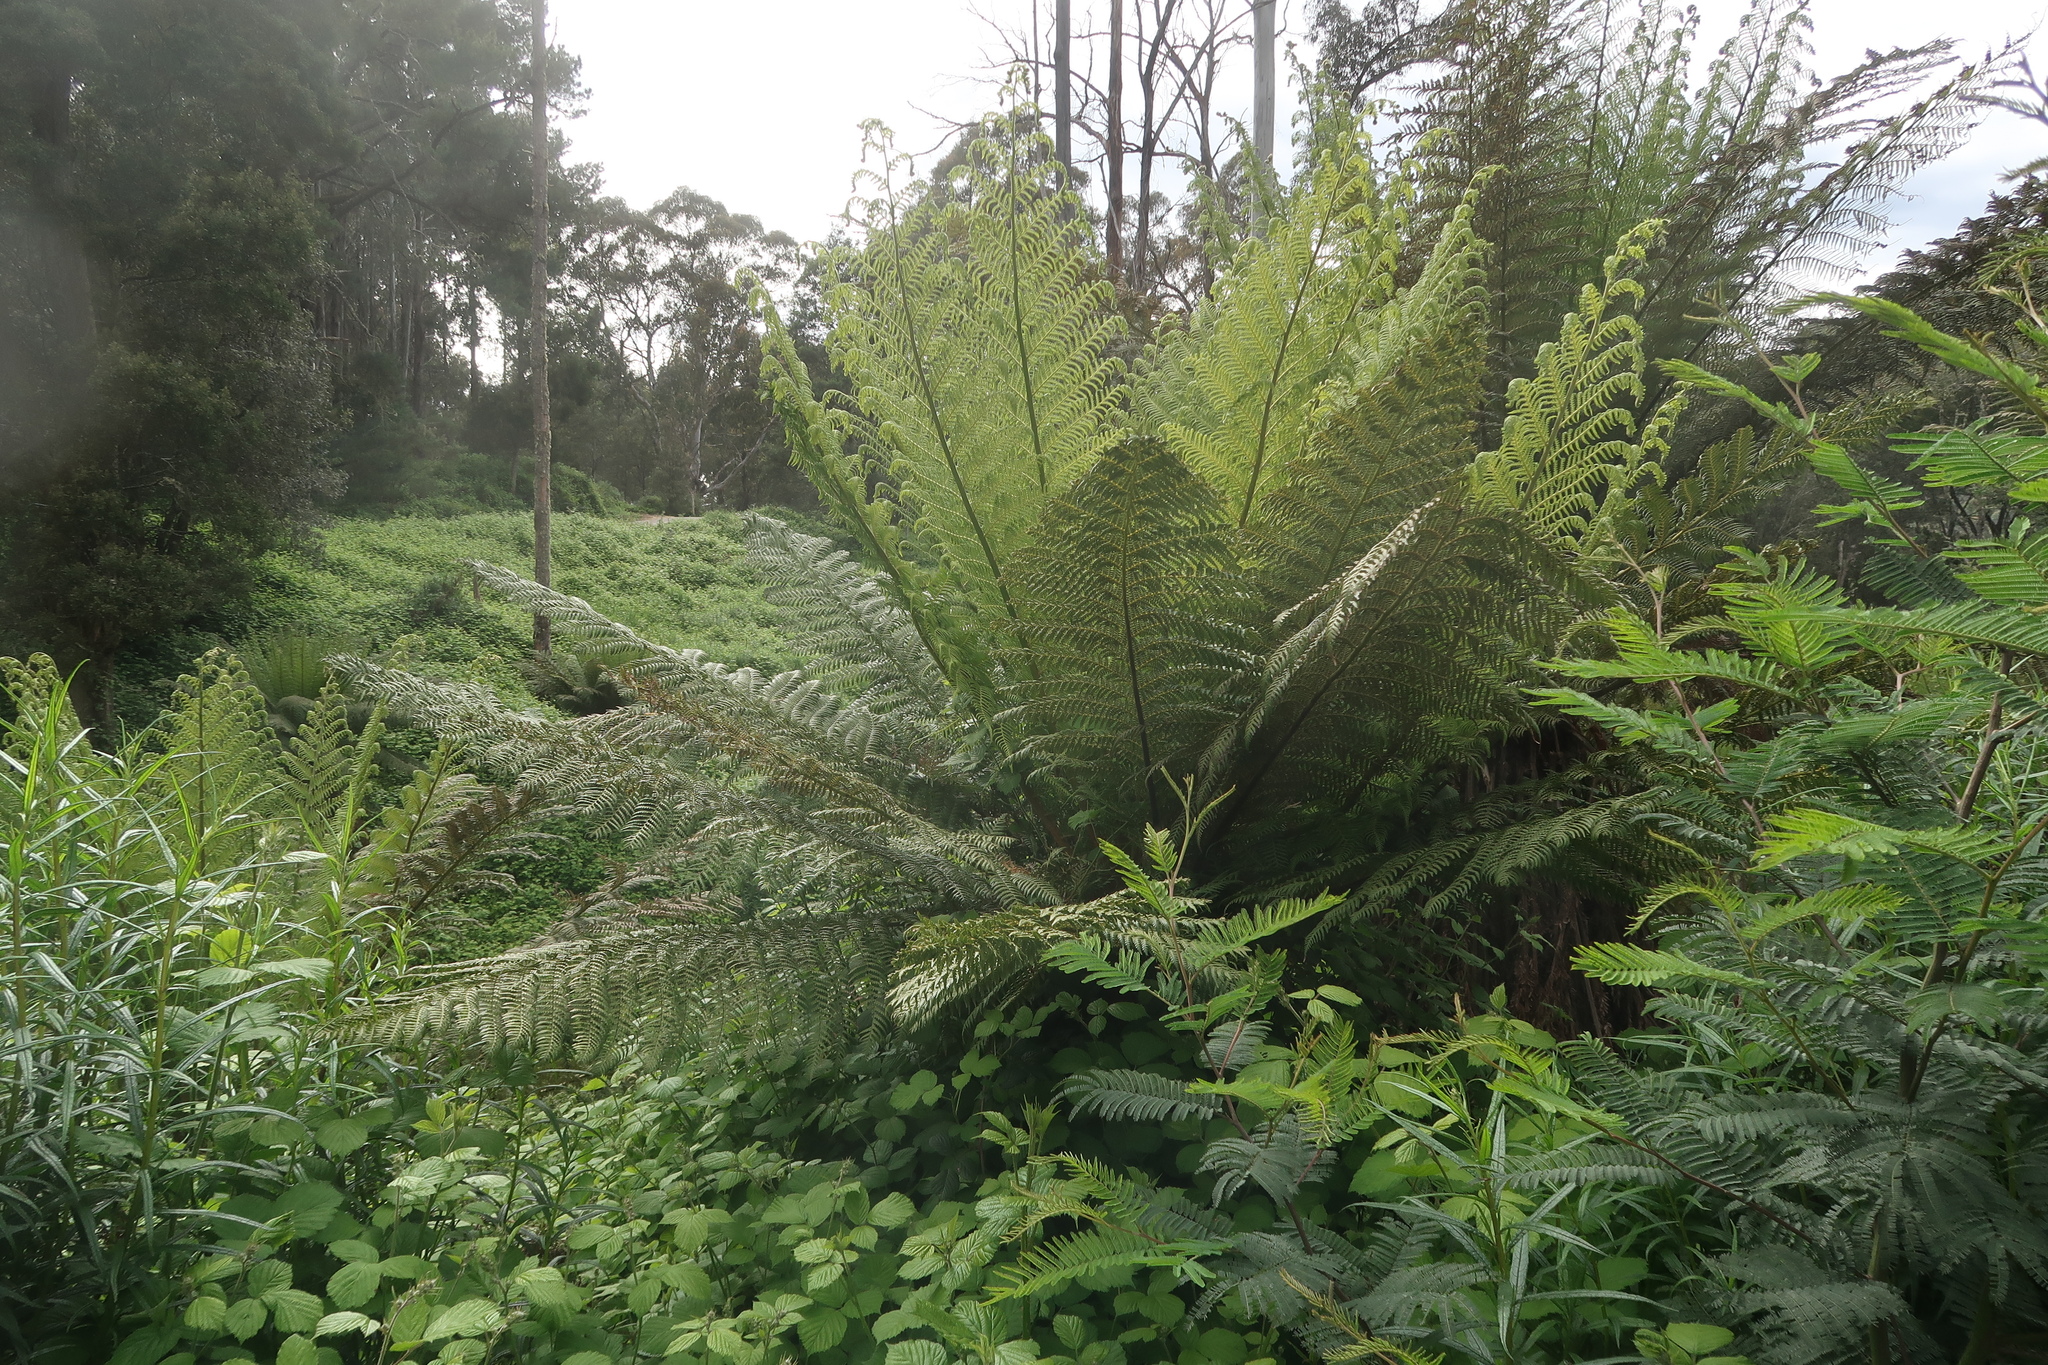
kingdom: Plantae
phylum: Tracheophyta
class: Polypodiopsida
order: Cyatheales
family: Dicksoniaceae
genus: Dicksonia
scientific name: Dicksonia antarctica
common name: Australian treefern
